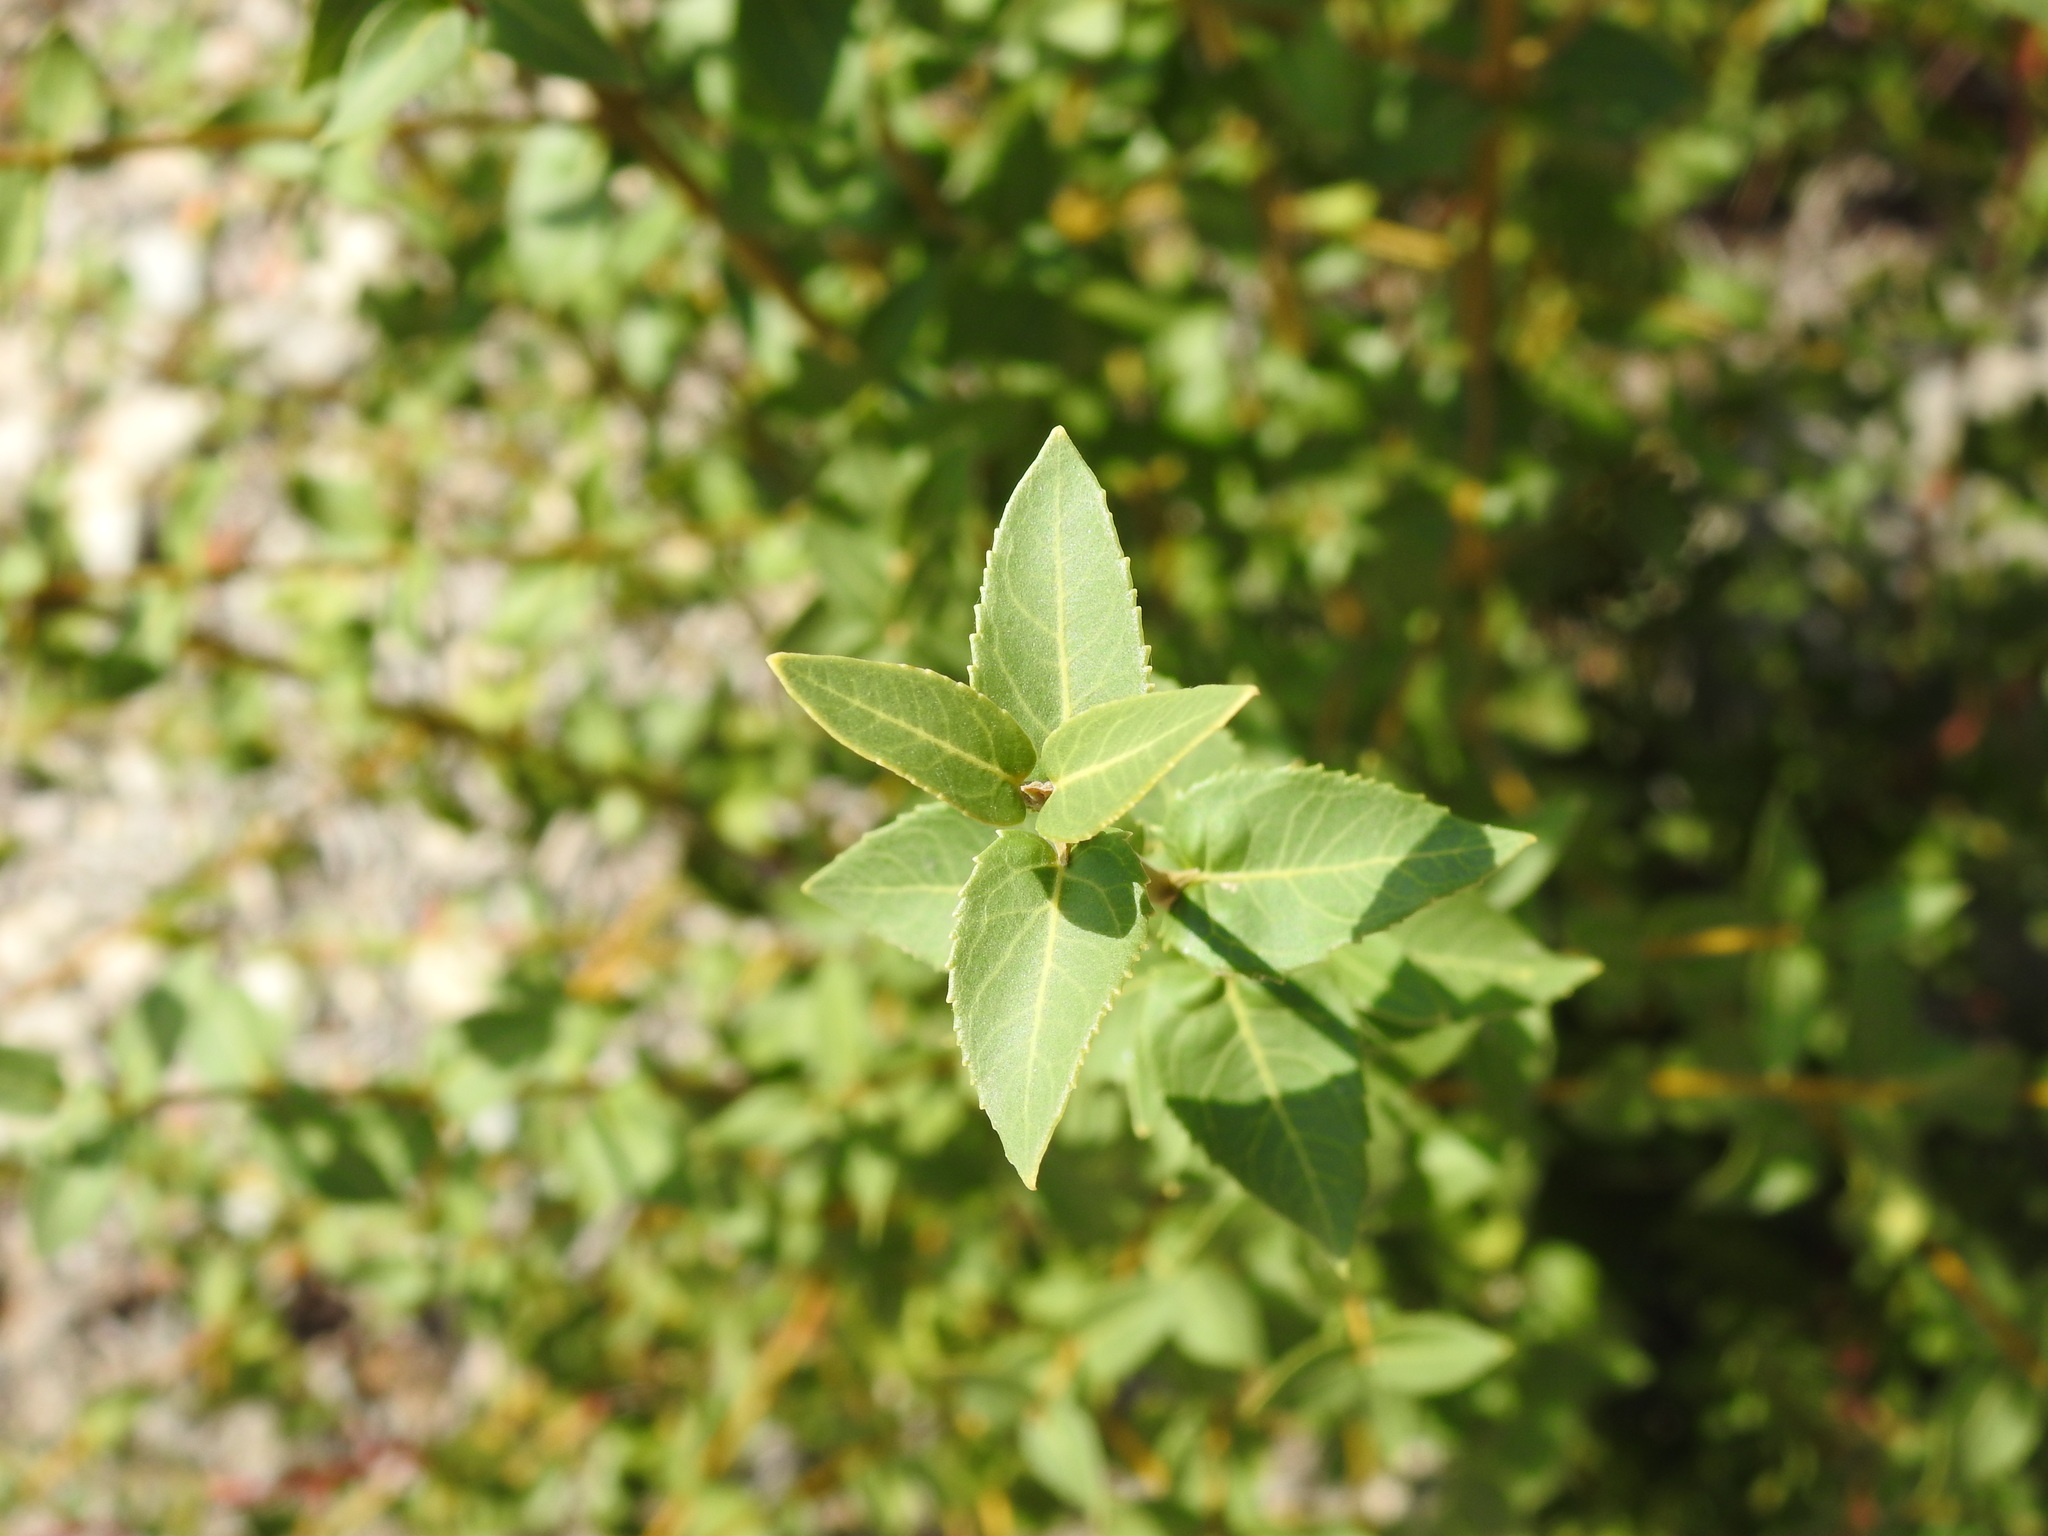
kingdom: Plantae
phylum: Tracheophyta
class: Magnoliopsida
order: Lamiales
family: Oleaceae
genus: Phillyrea
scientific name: Phillyrea latifolia
